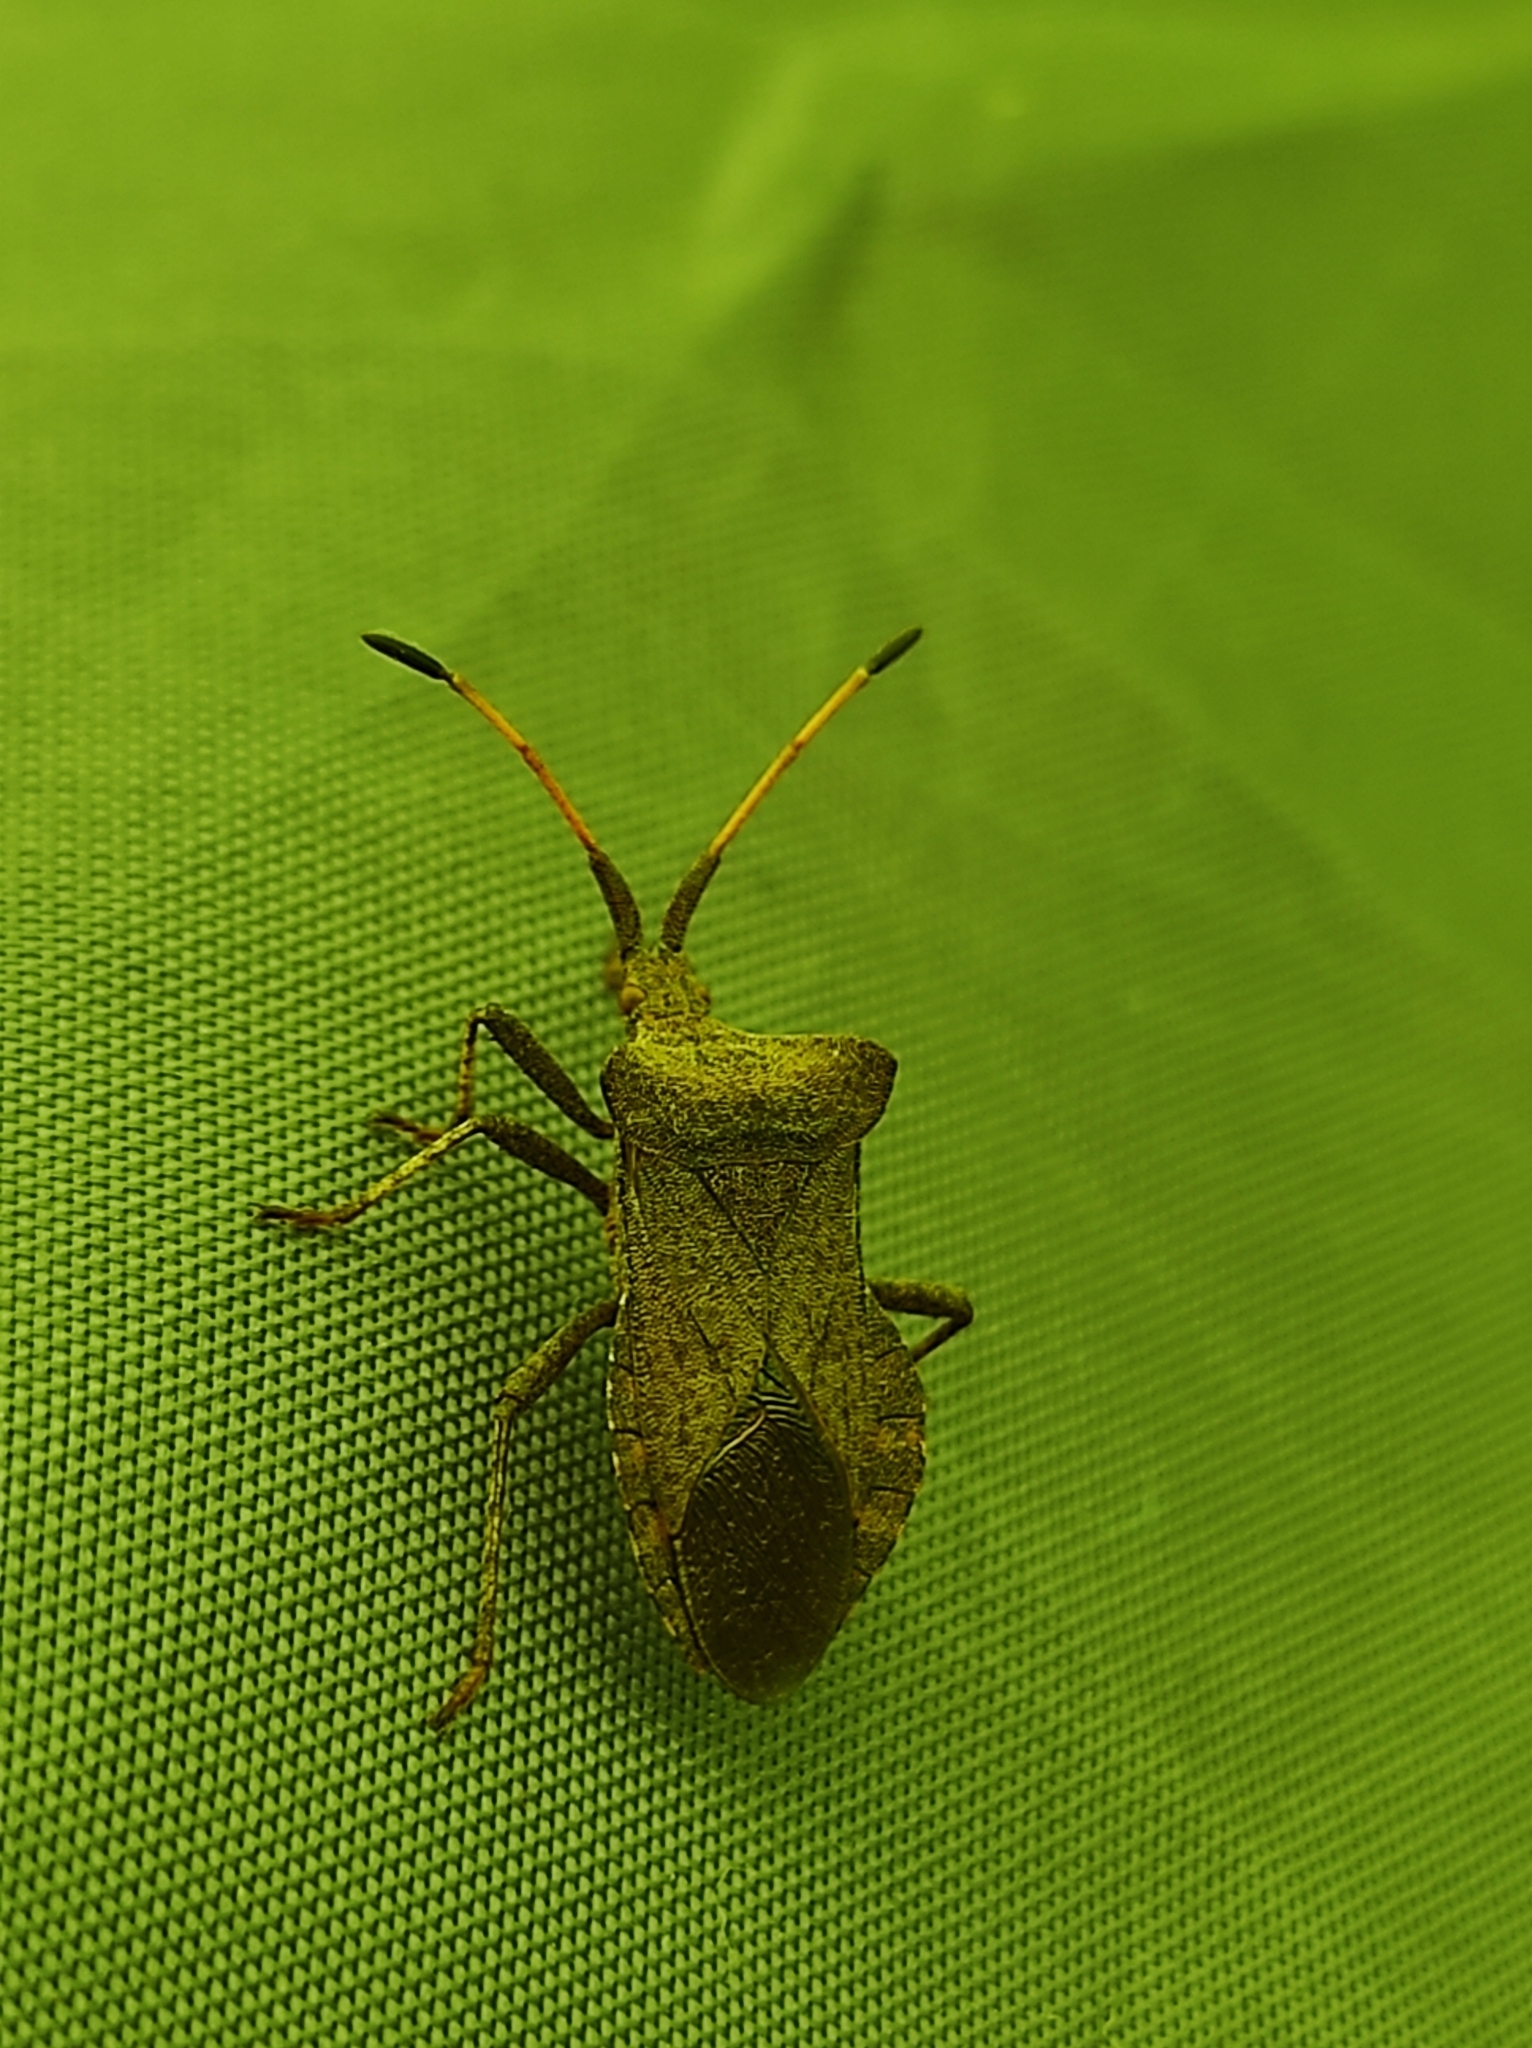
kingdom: Animalia
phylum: Arthropoda
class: Insecta
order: Hemiptera
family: Coreidae
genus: Coreus
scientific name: Coreus marginatus
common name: Dock bug
